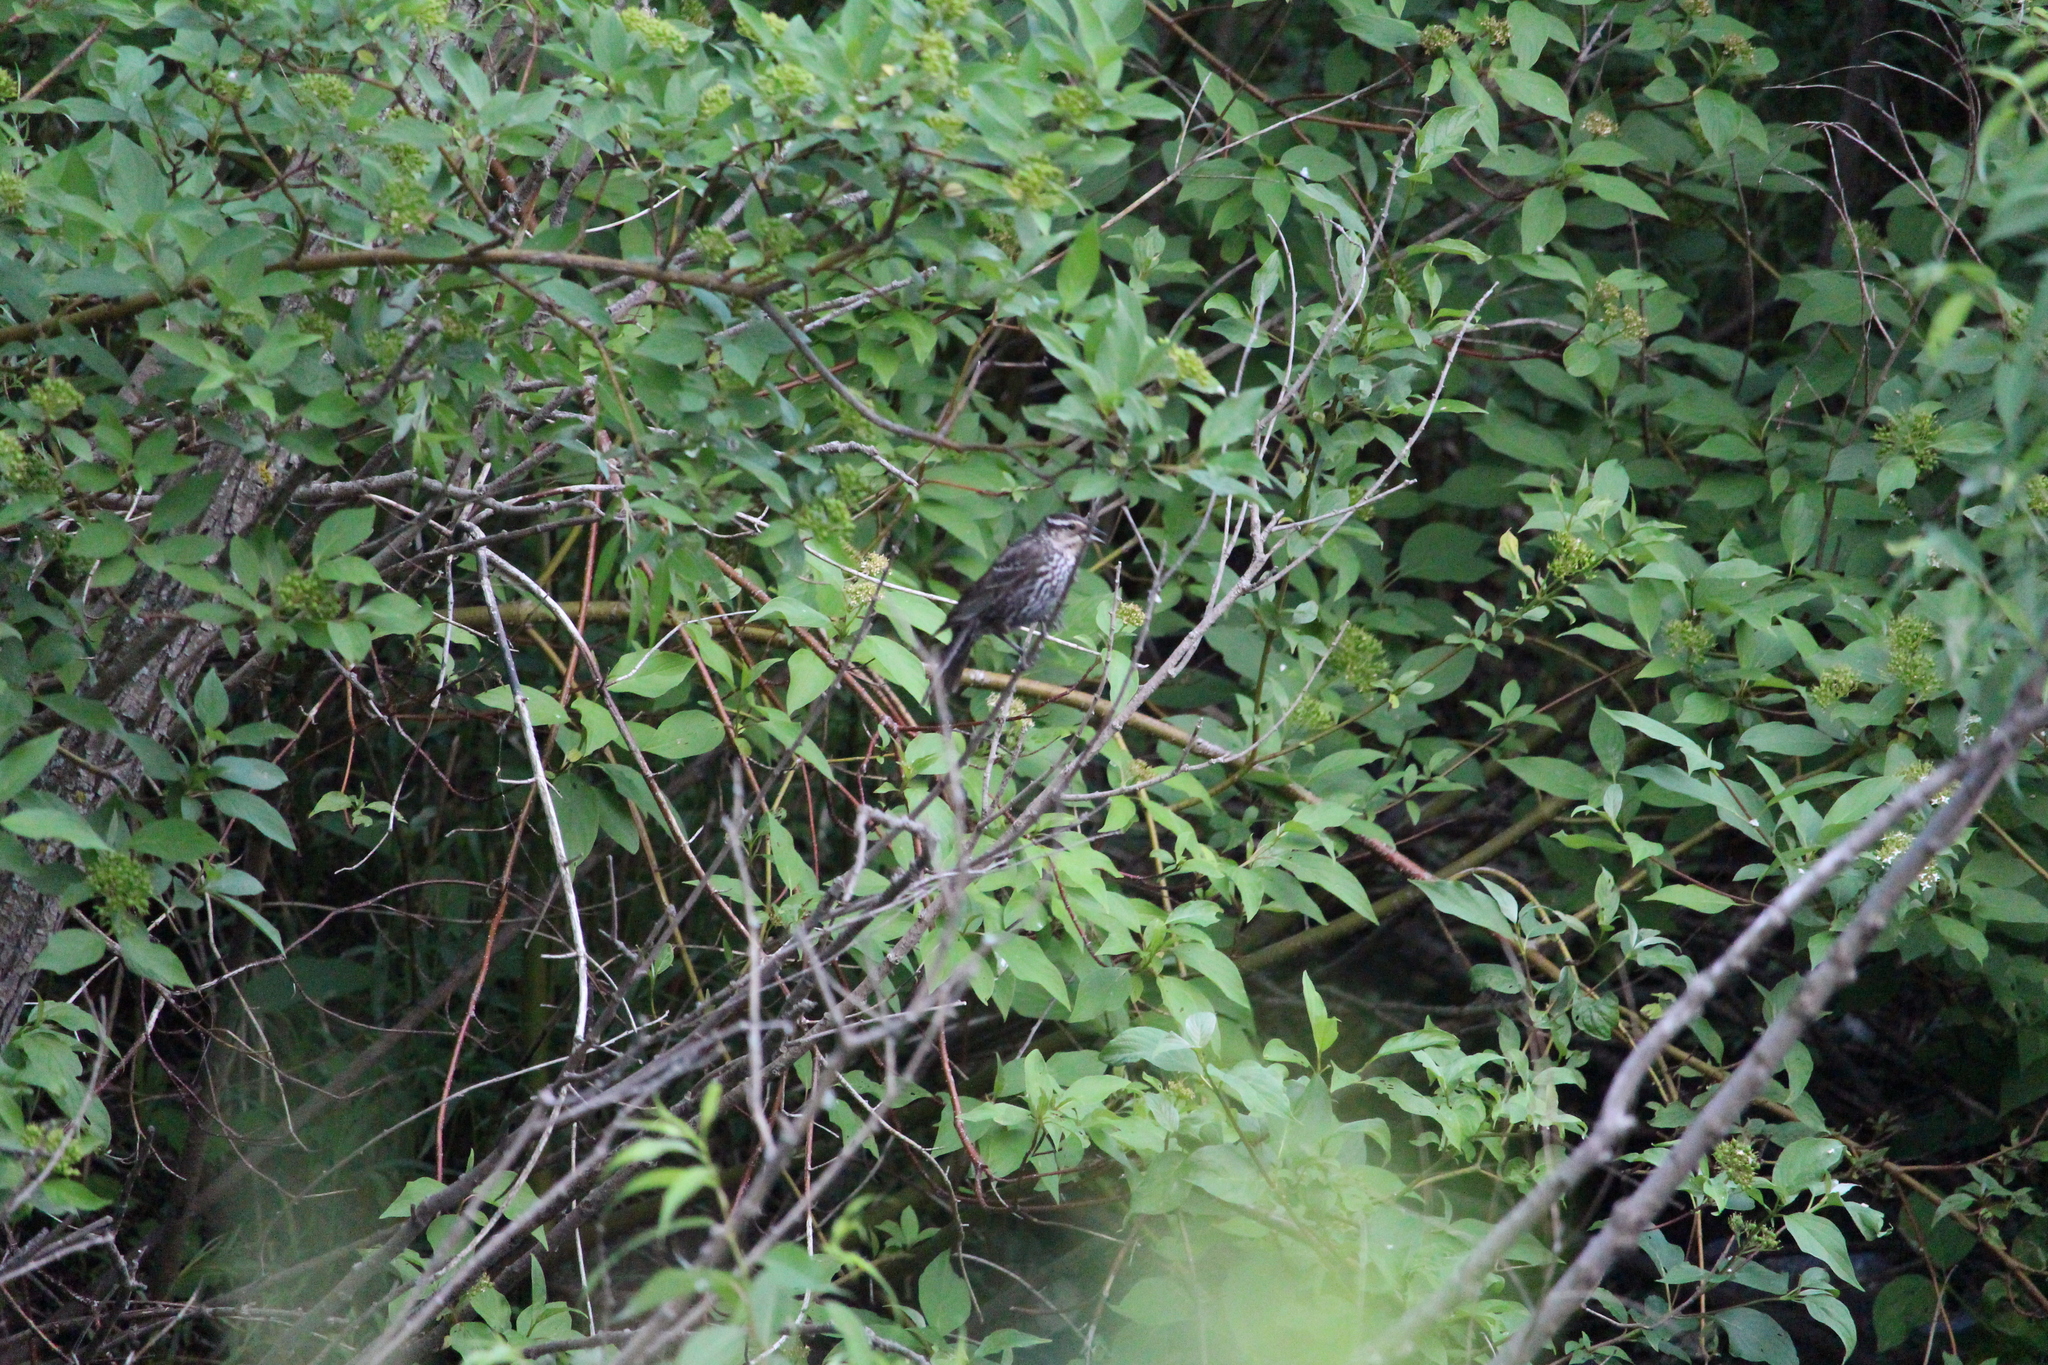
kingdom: Animalia
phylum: Chordata
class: Aves
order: Passeriformes
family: Icteridae
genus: Agelaius
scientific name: Agelaius phoeniceus
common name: Red-winged blackbird
